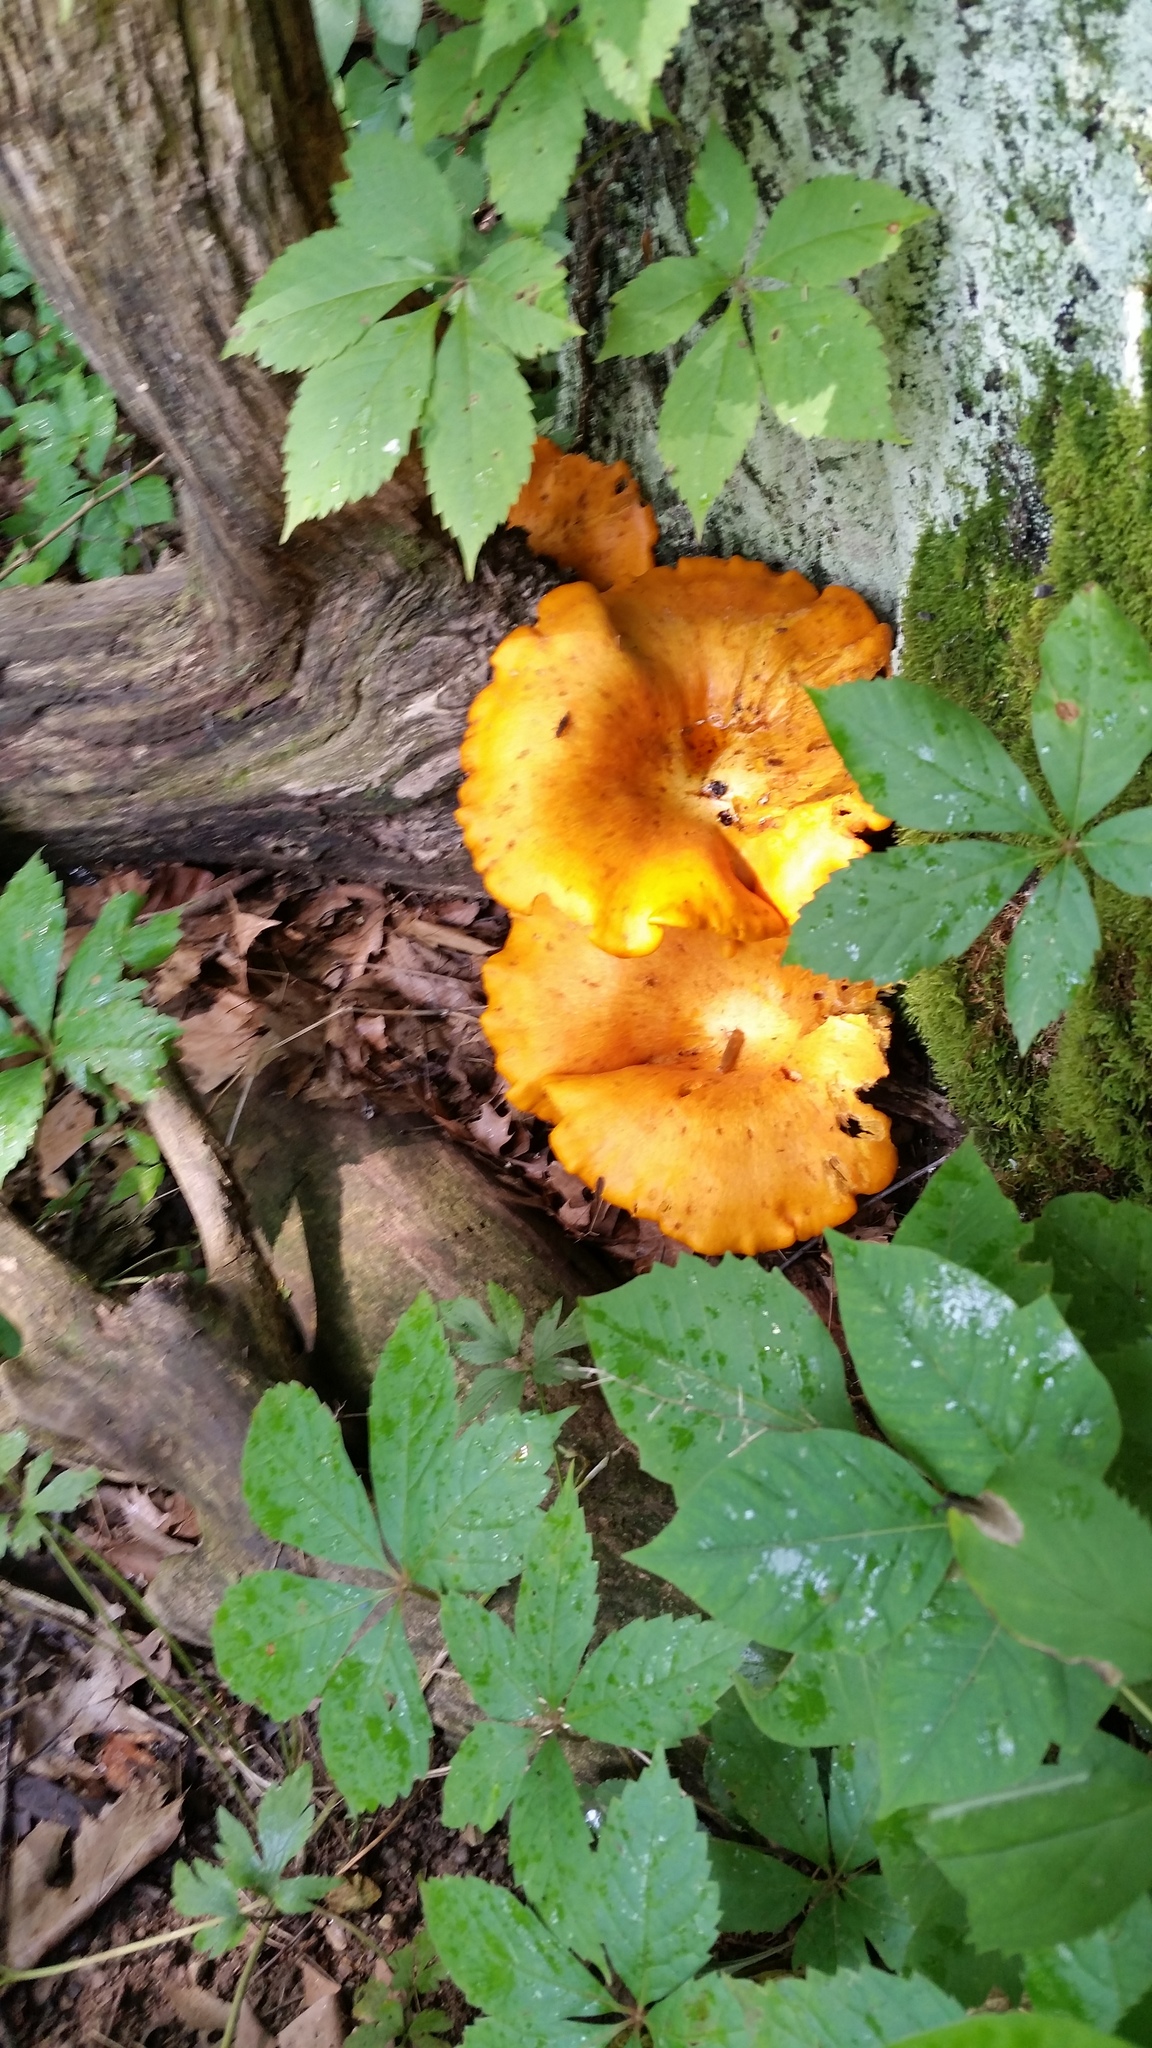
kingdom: Fungi
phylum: Basidiomycota
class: Agaricomycetes
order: Agaricales
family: Omphalotaceae
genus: Omphalotus
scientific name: Omphalotus illudens
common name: Jack o lantern
